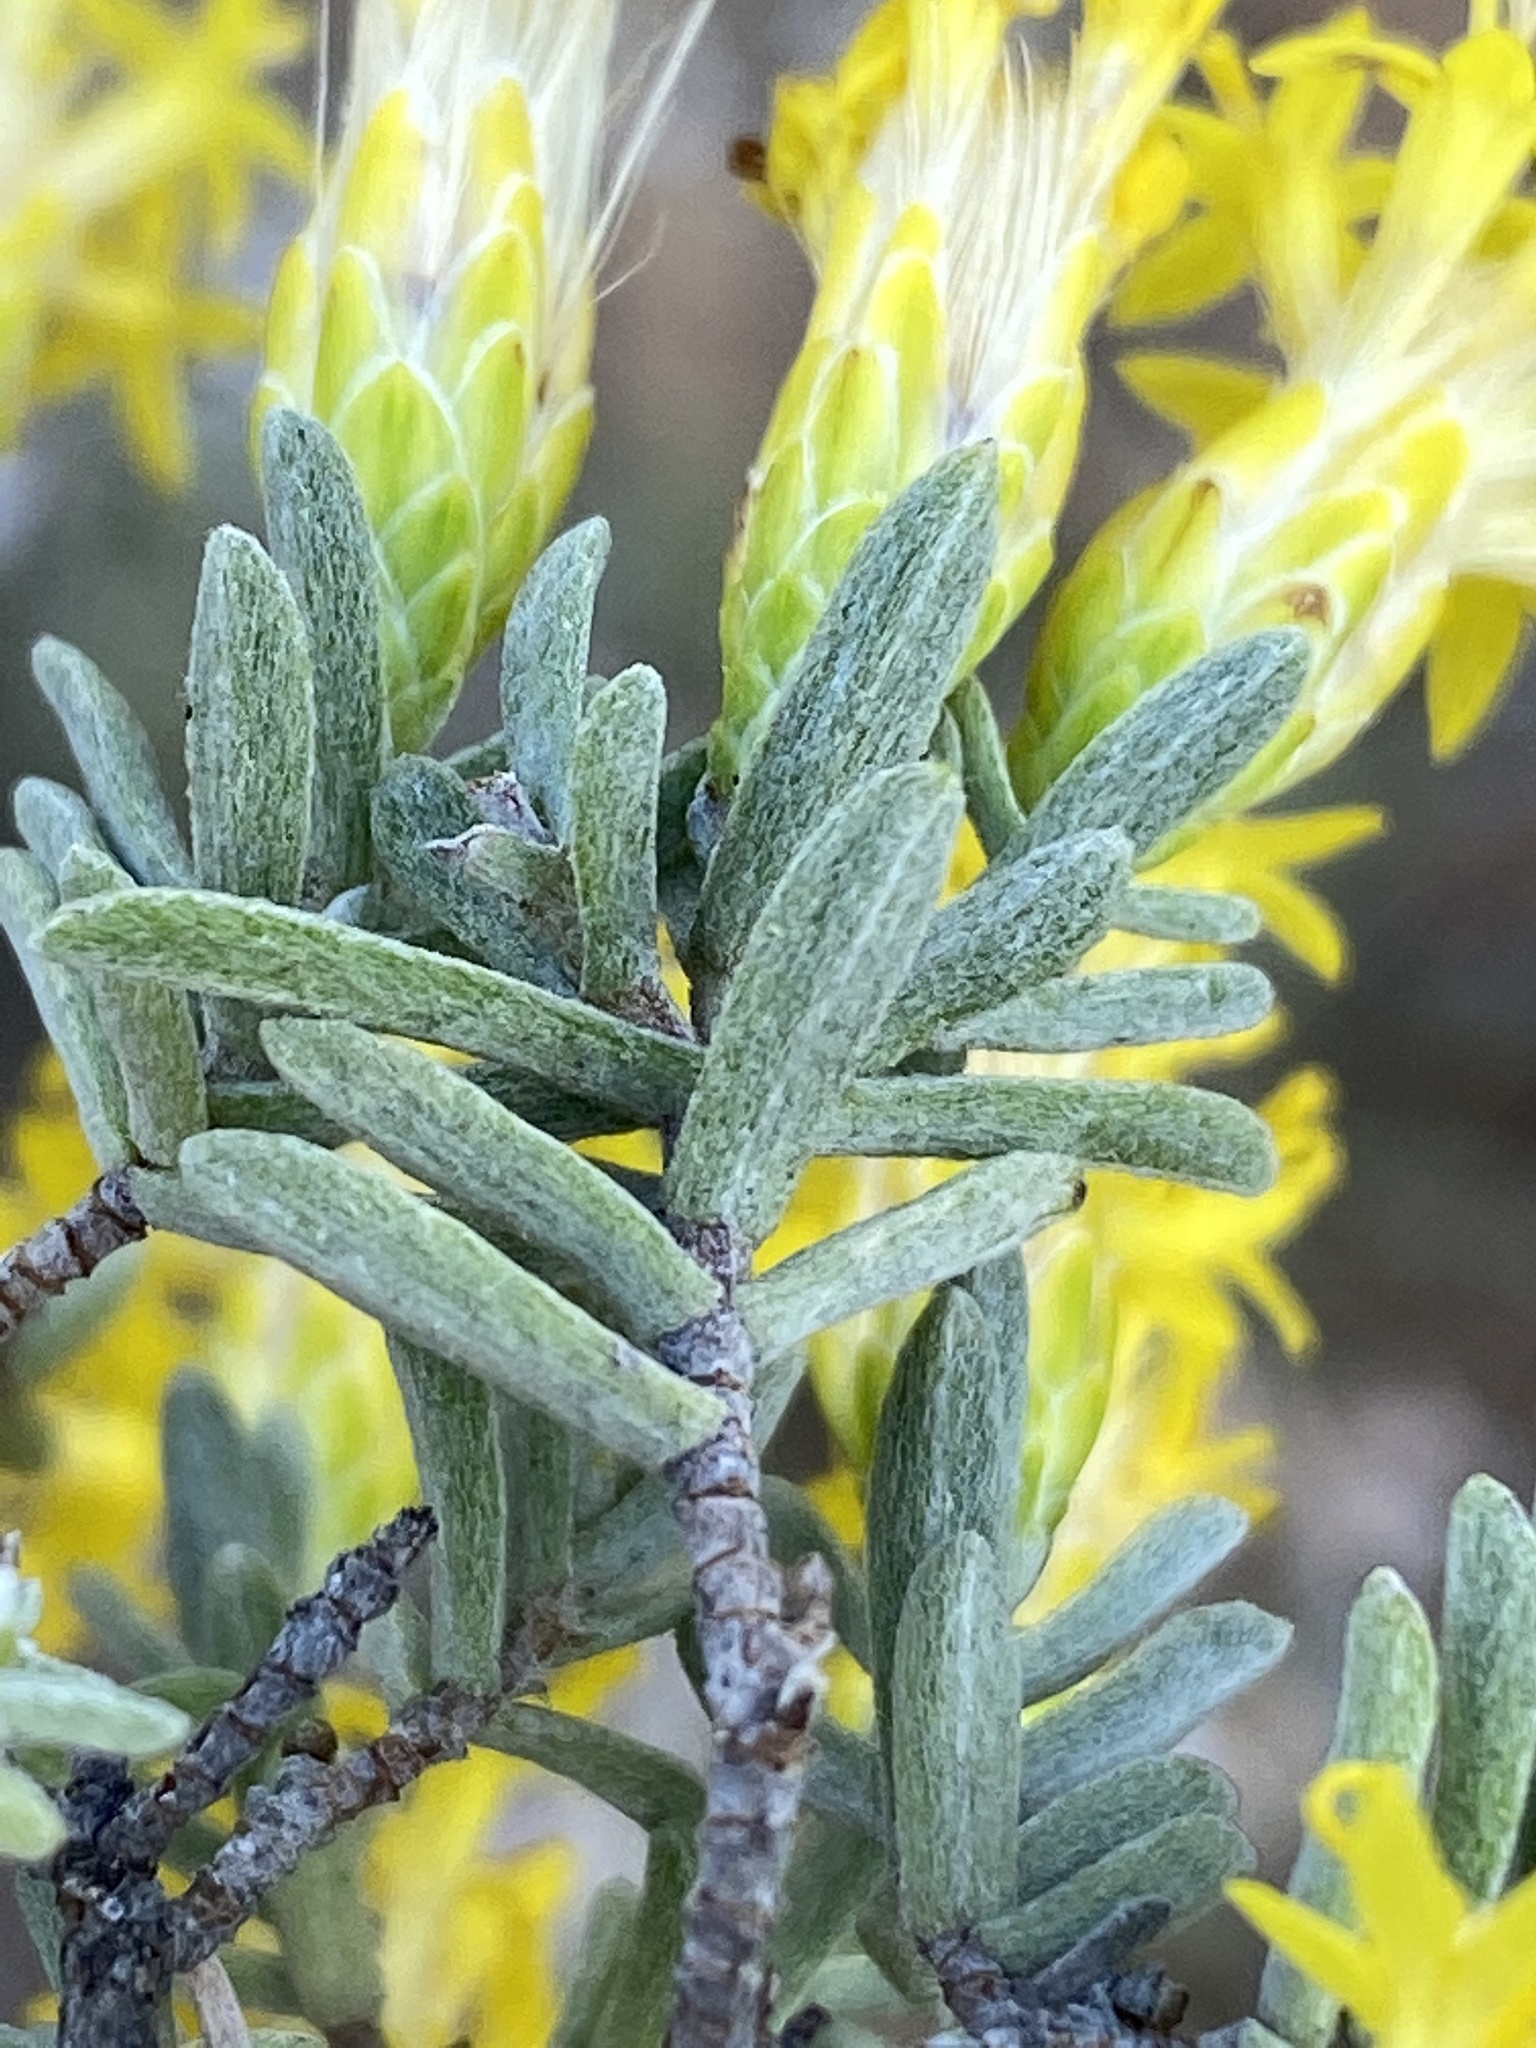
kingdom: Plantae
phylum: Tracheophyta
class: Magnoliopsida
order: Asterales
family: Asteraceae
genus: Pteronia
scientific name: Pteronia incana
